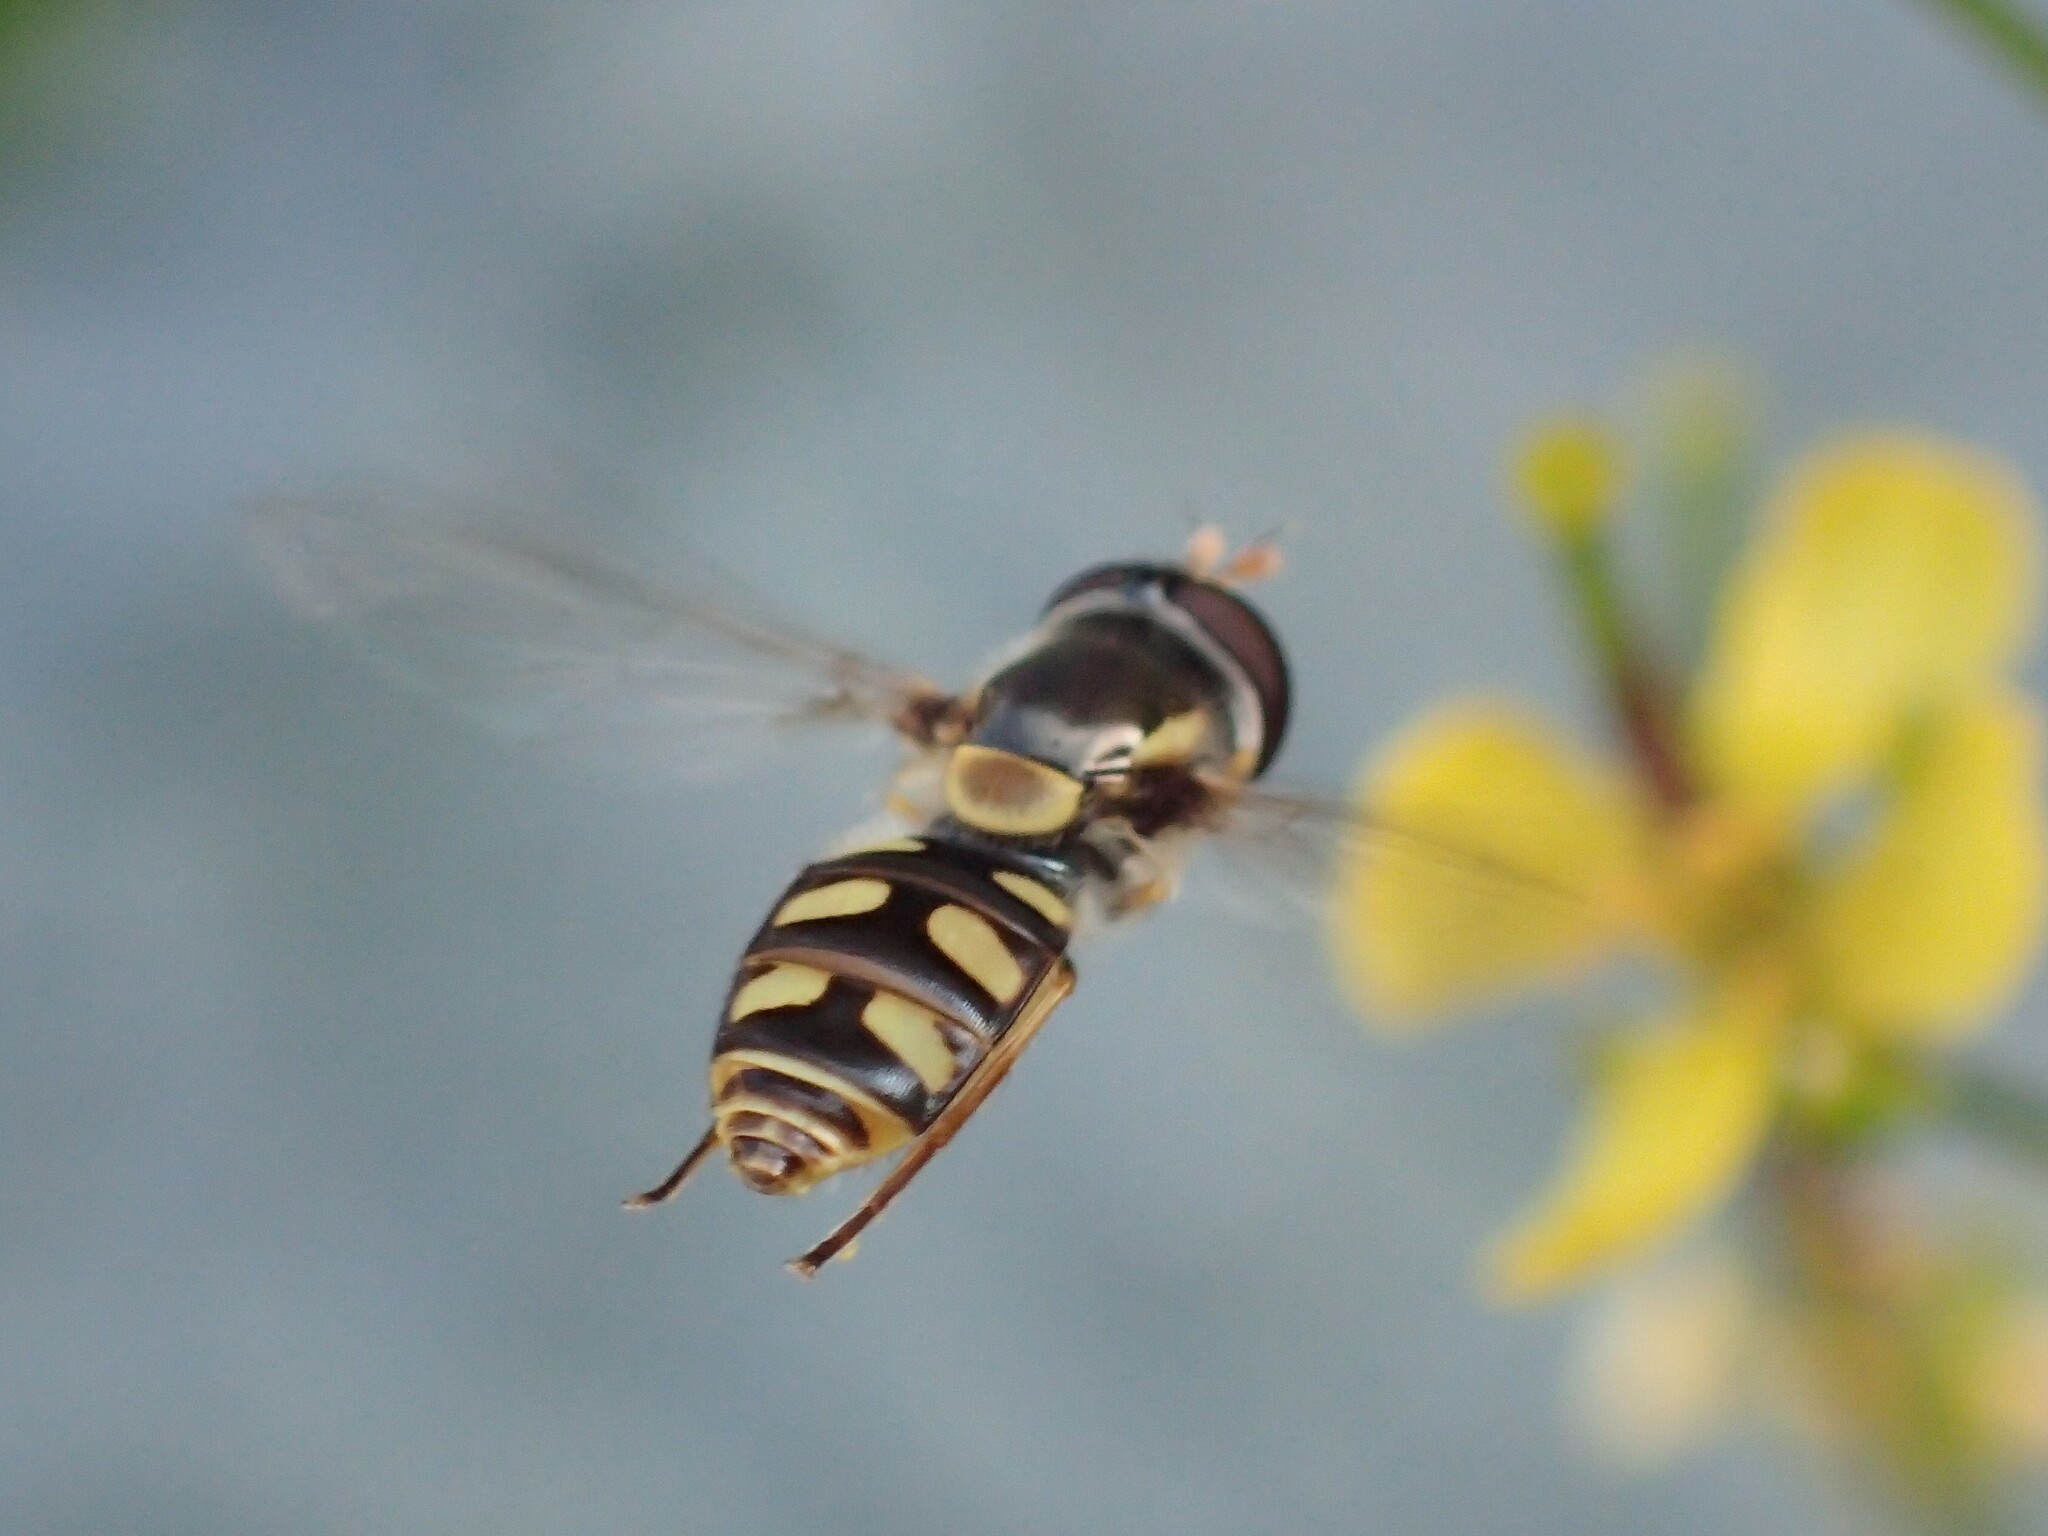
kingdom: Animalia
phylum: Arthropoda
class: Insecta
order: Diptera
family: Syrphidae
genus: Simosyrphus
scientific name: Simosyrphus grandicornis
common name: Hoverfly
